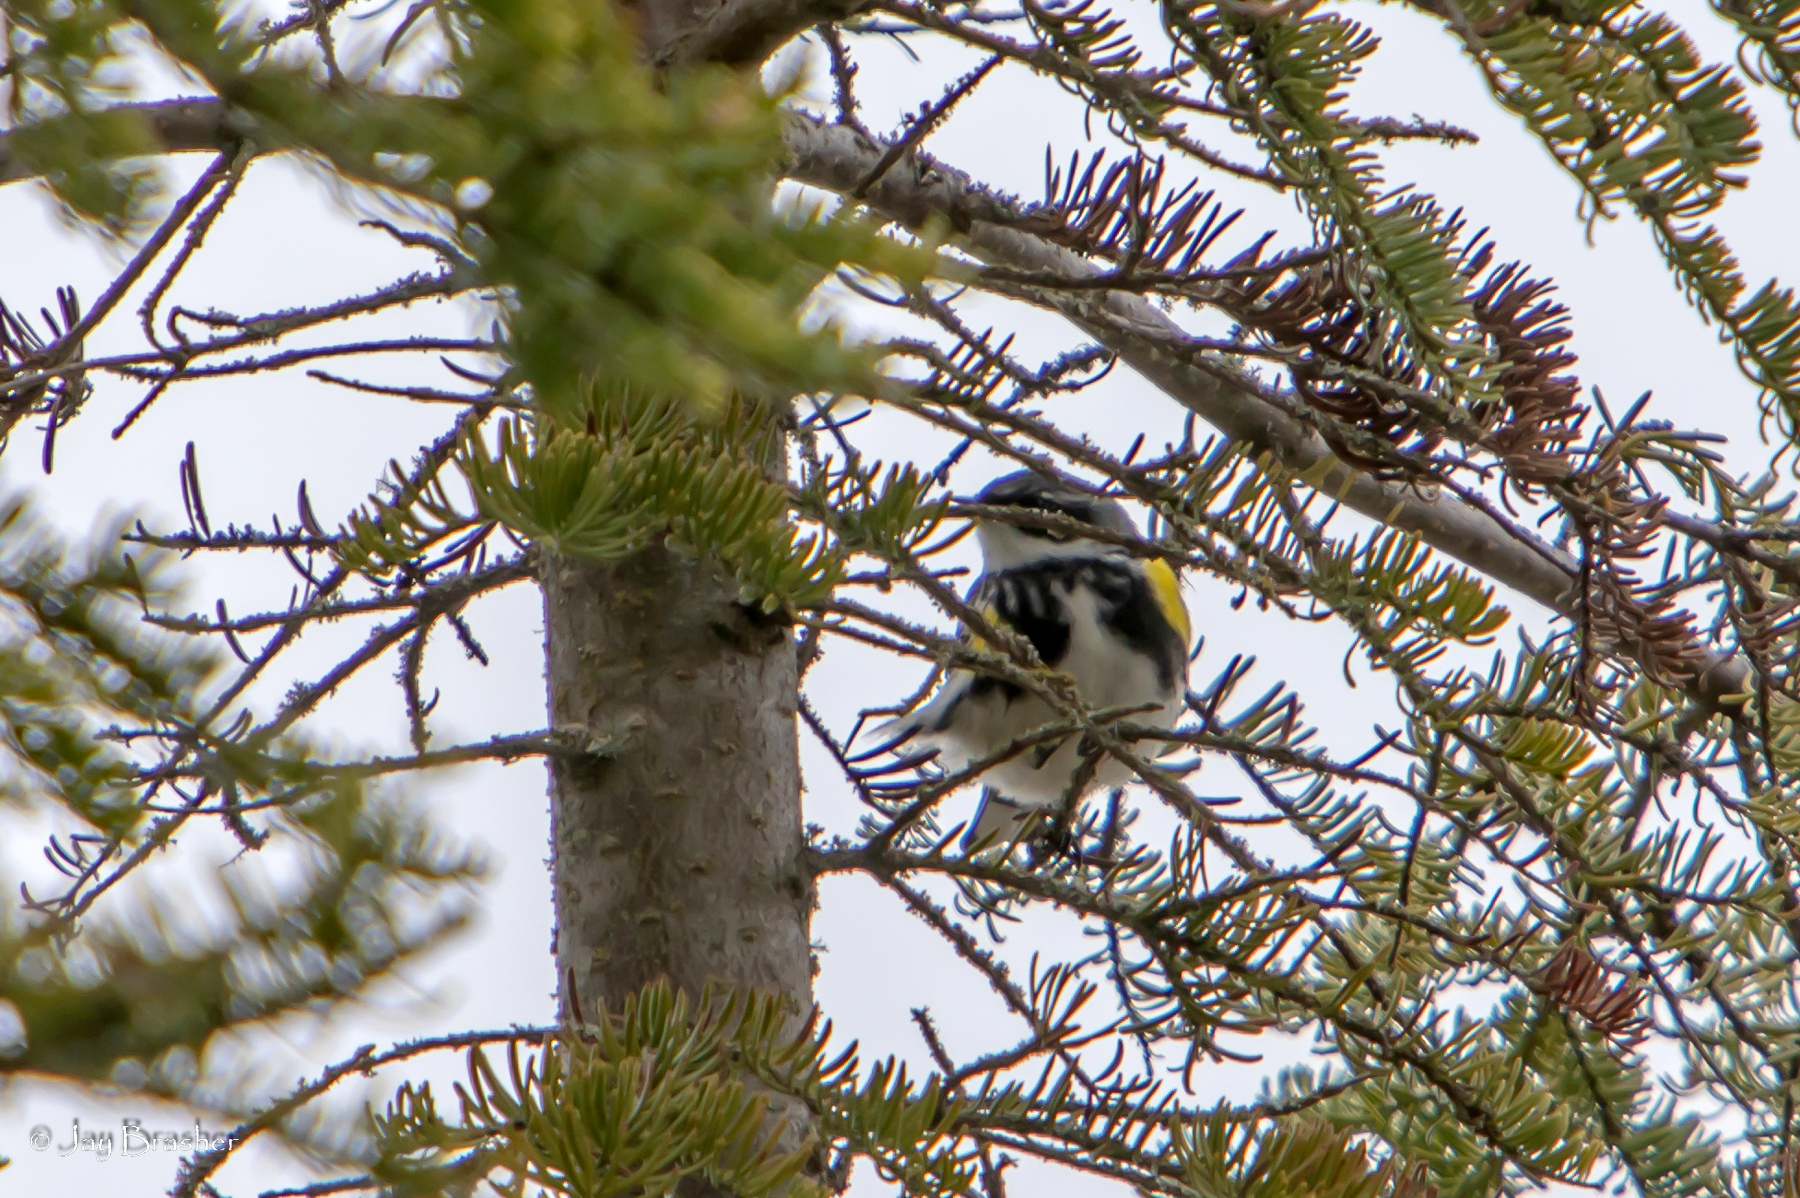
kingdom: Animalia
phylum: Chordata
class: Aves
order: Passeriformes
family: Parulidae
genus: Setophaga
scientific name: Setophaga coronata
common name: Myrtle warbler
